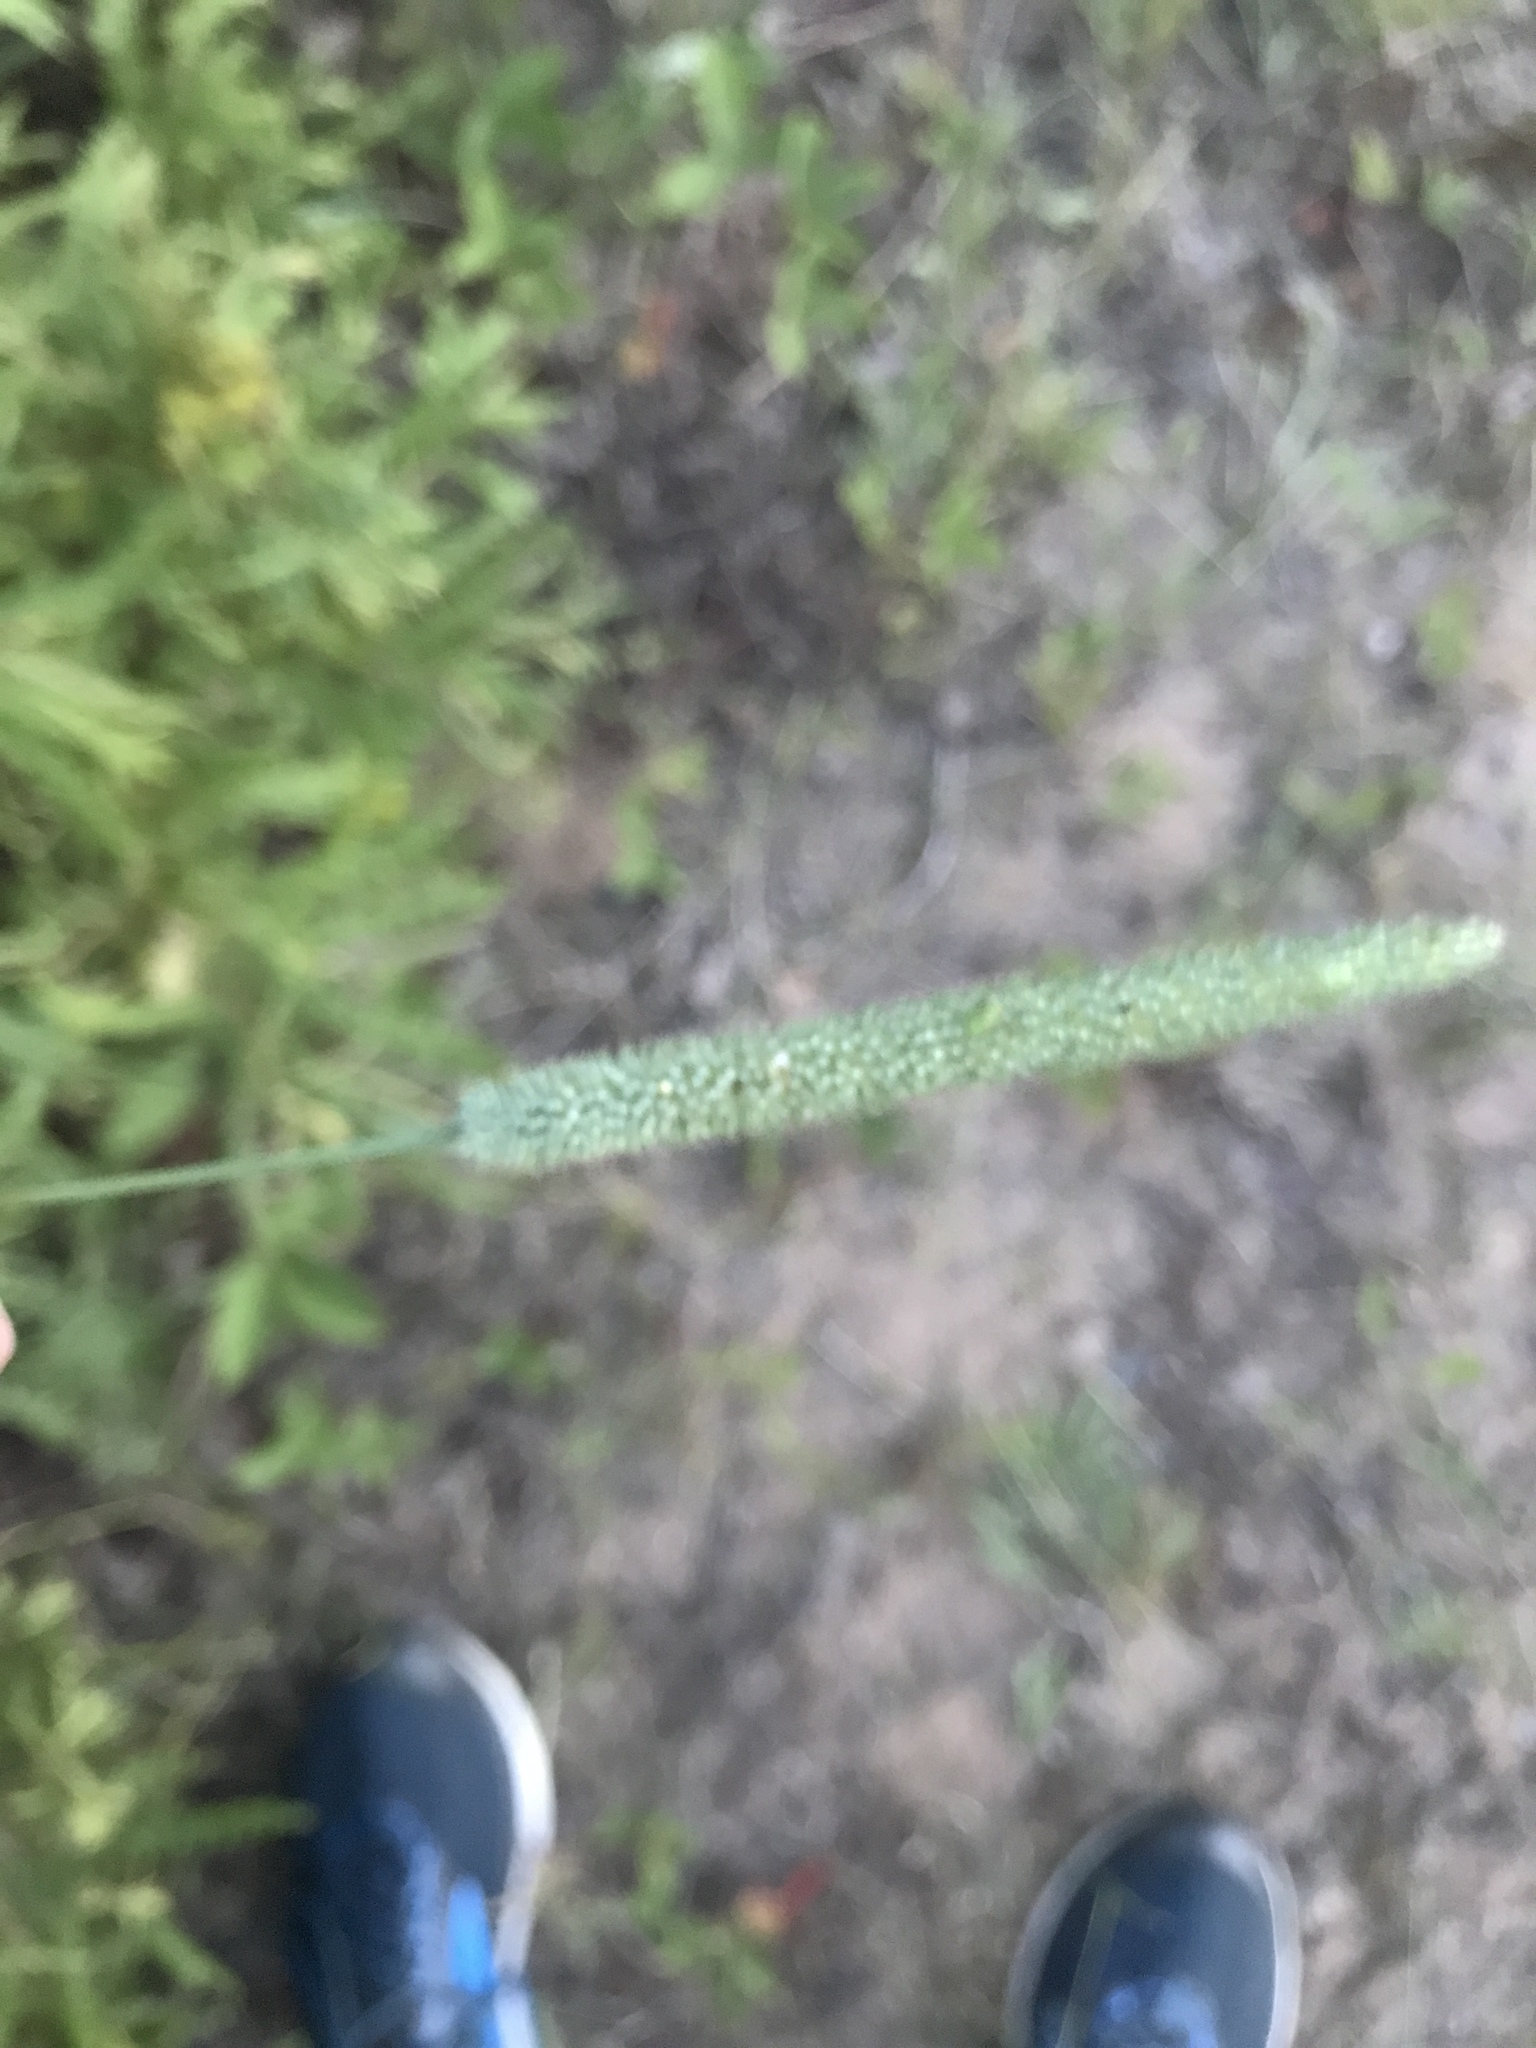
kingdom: Plantae
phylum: Tracheophyta
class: Liliopsida
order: Poales
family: Poaceae
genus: Phleum
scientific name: Phleum pratense
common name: Timothy grass
